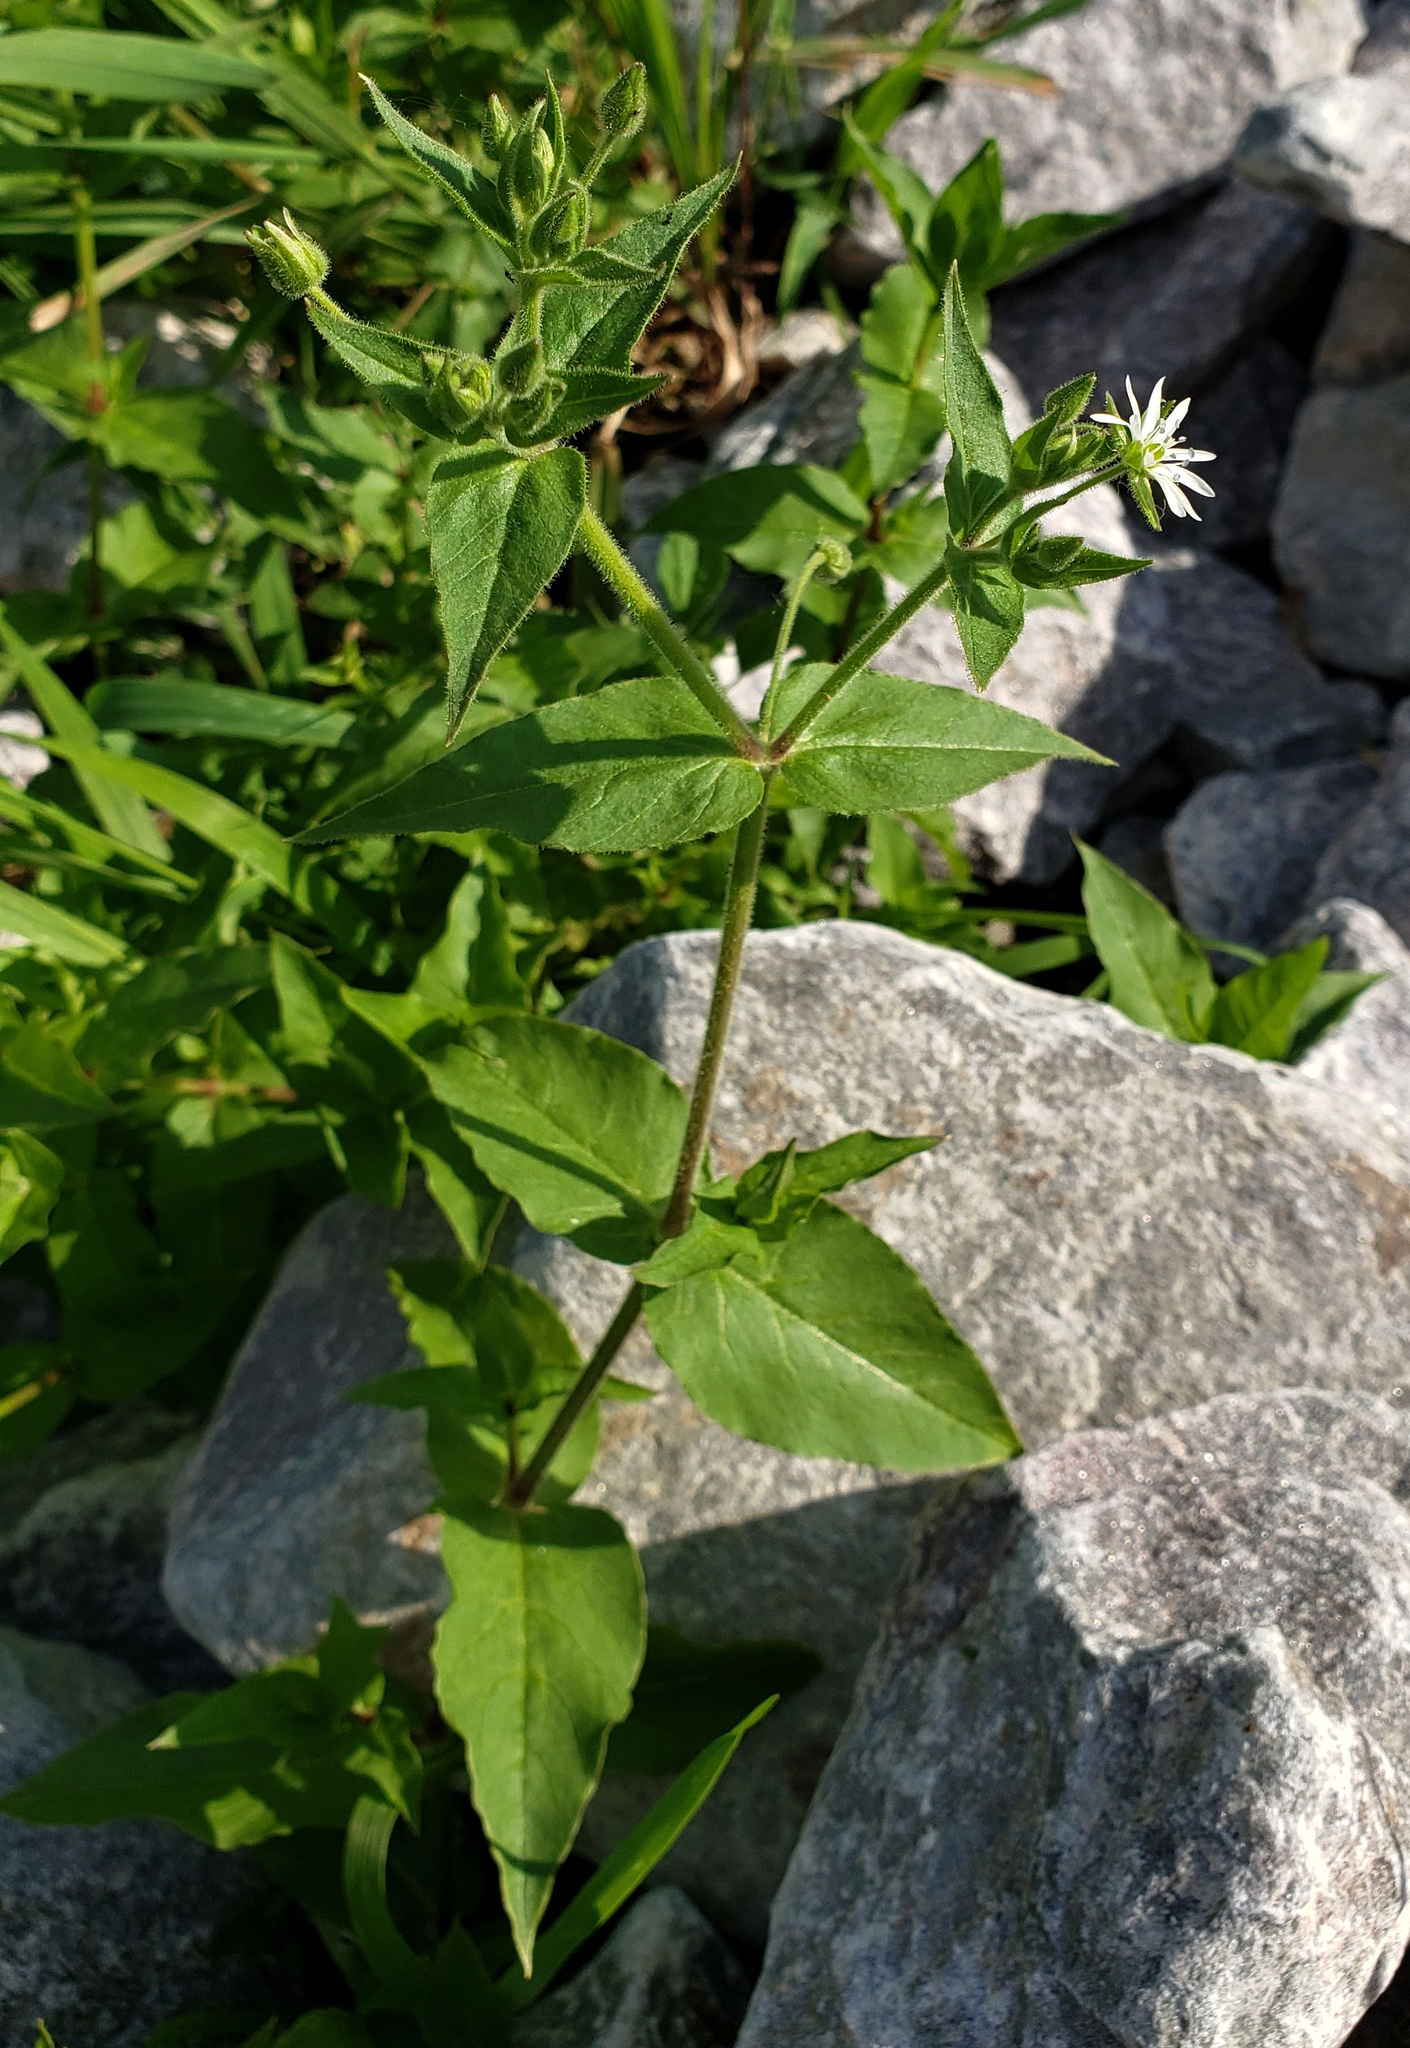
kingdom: Plantae
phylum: Tracheophyta
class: Magnoliopsida
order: Caryophyllales
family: Caryophyllaceae
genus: Stellaria
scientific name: Stellaria aquatica
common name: Water chickweed
